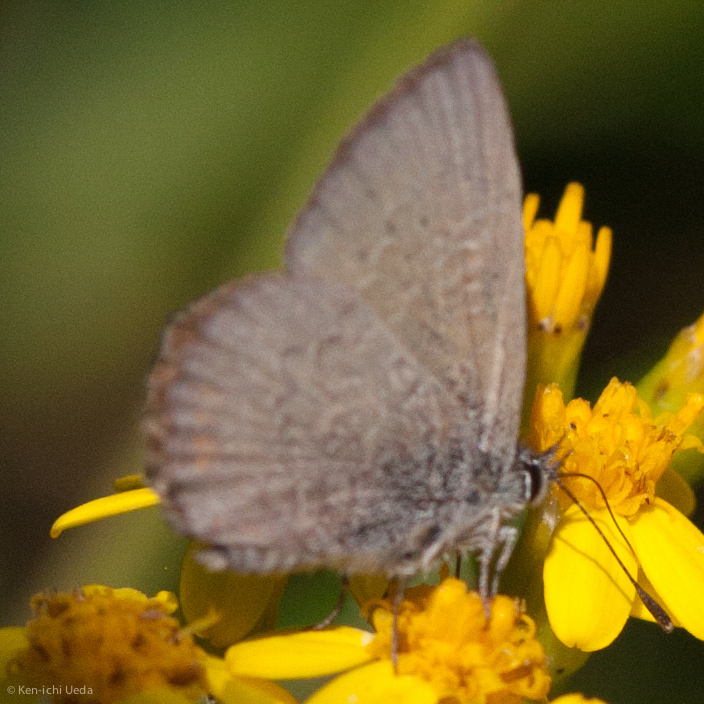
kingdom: Animalia
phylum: Arthropoda
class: Insecta
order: Lepidoptera
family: Lycaenidae
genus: Neolucia
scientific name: Neolucia mathewi
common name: Mathew's blue
